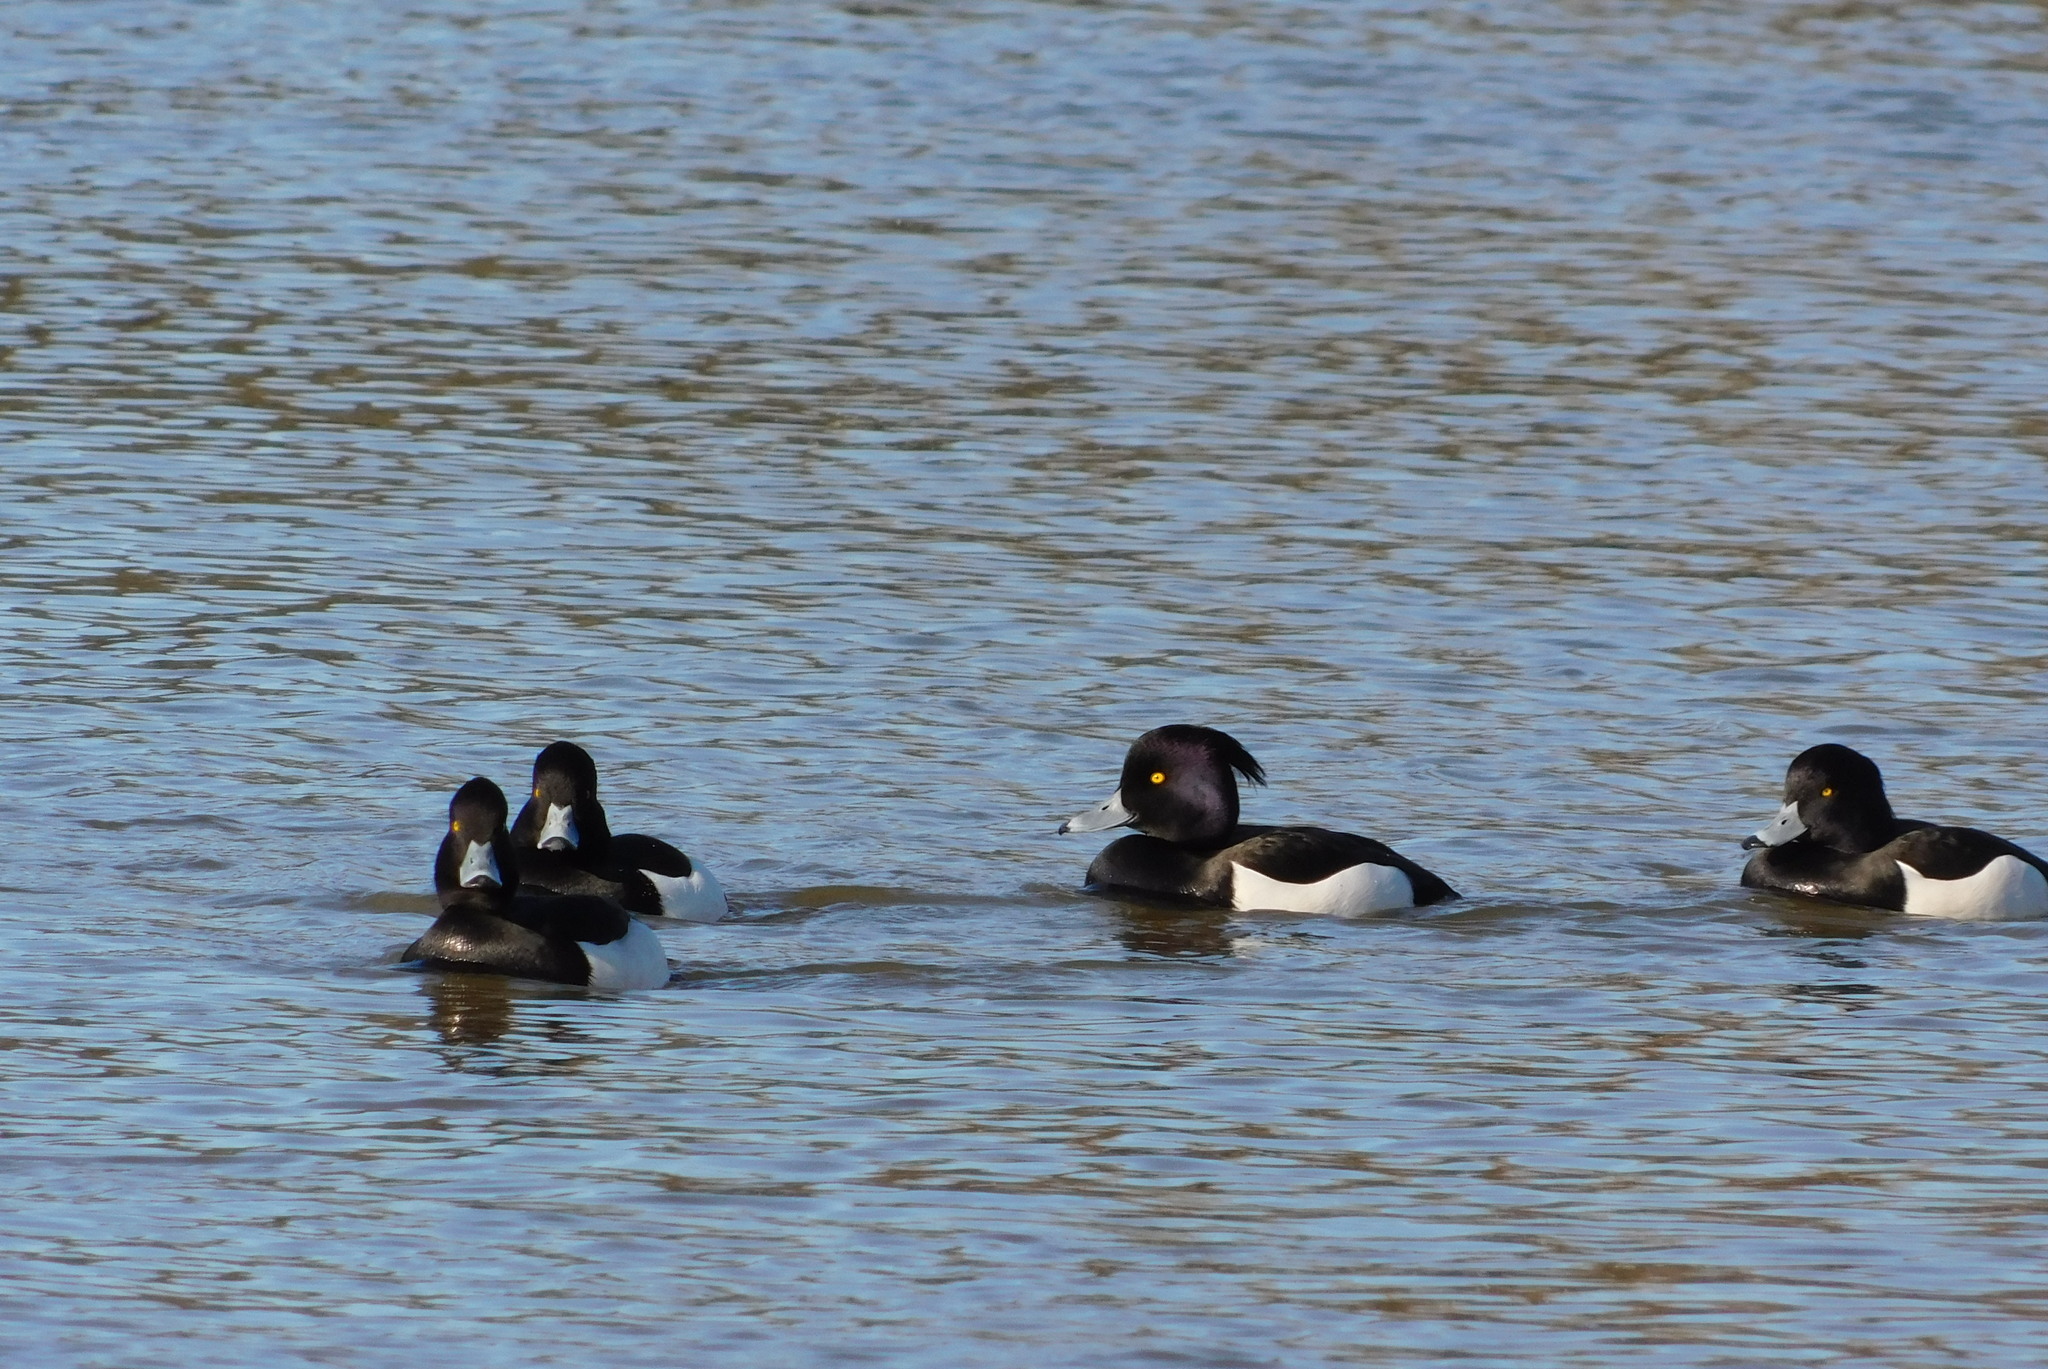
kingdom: Animalia
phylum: Chordata
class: Aves
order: Anseriformes
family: Anatidae
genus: Aythya
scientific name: Aythya fuligula
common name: Tufted duck
